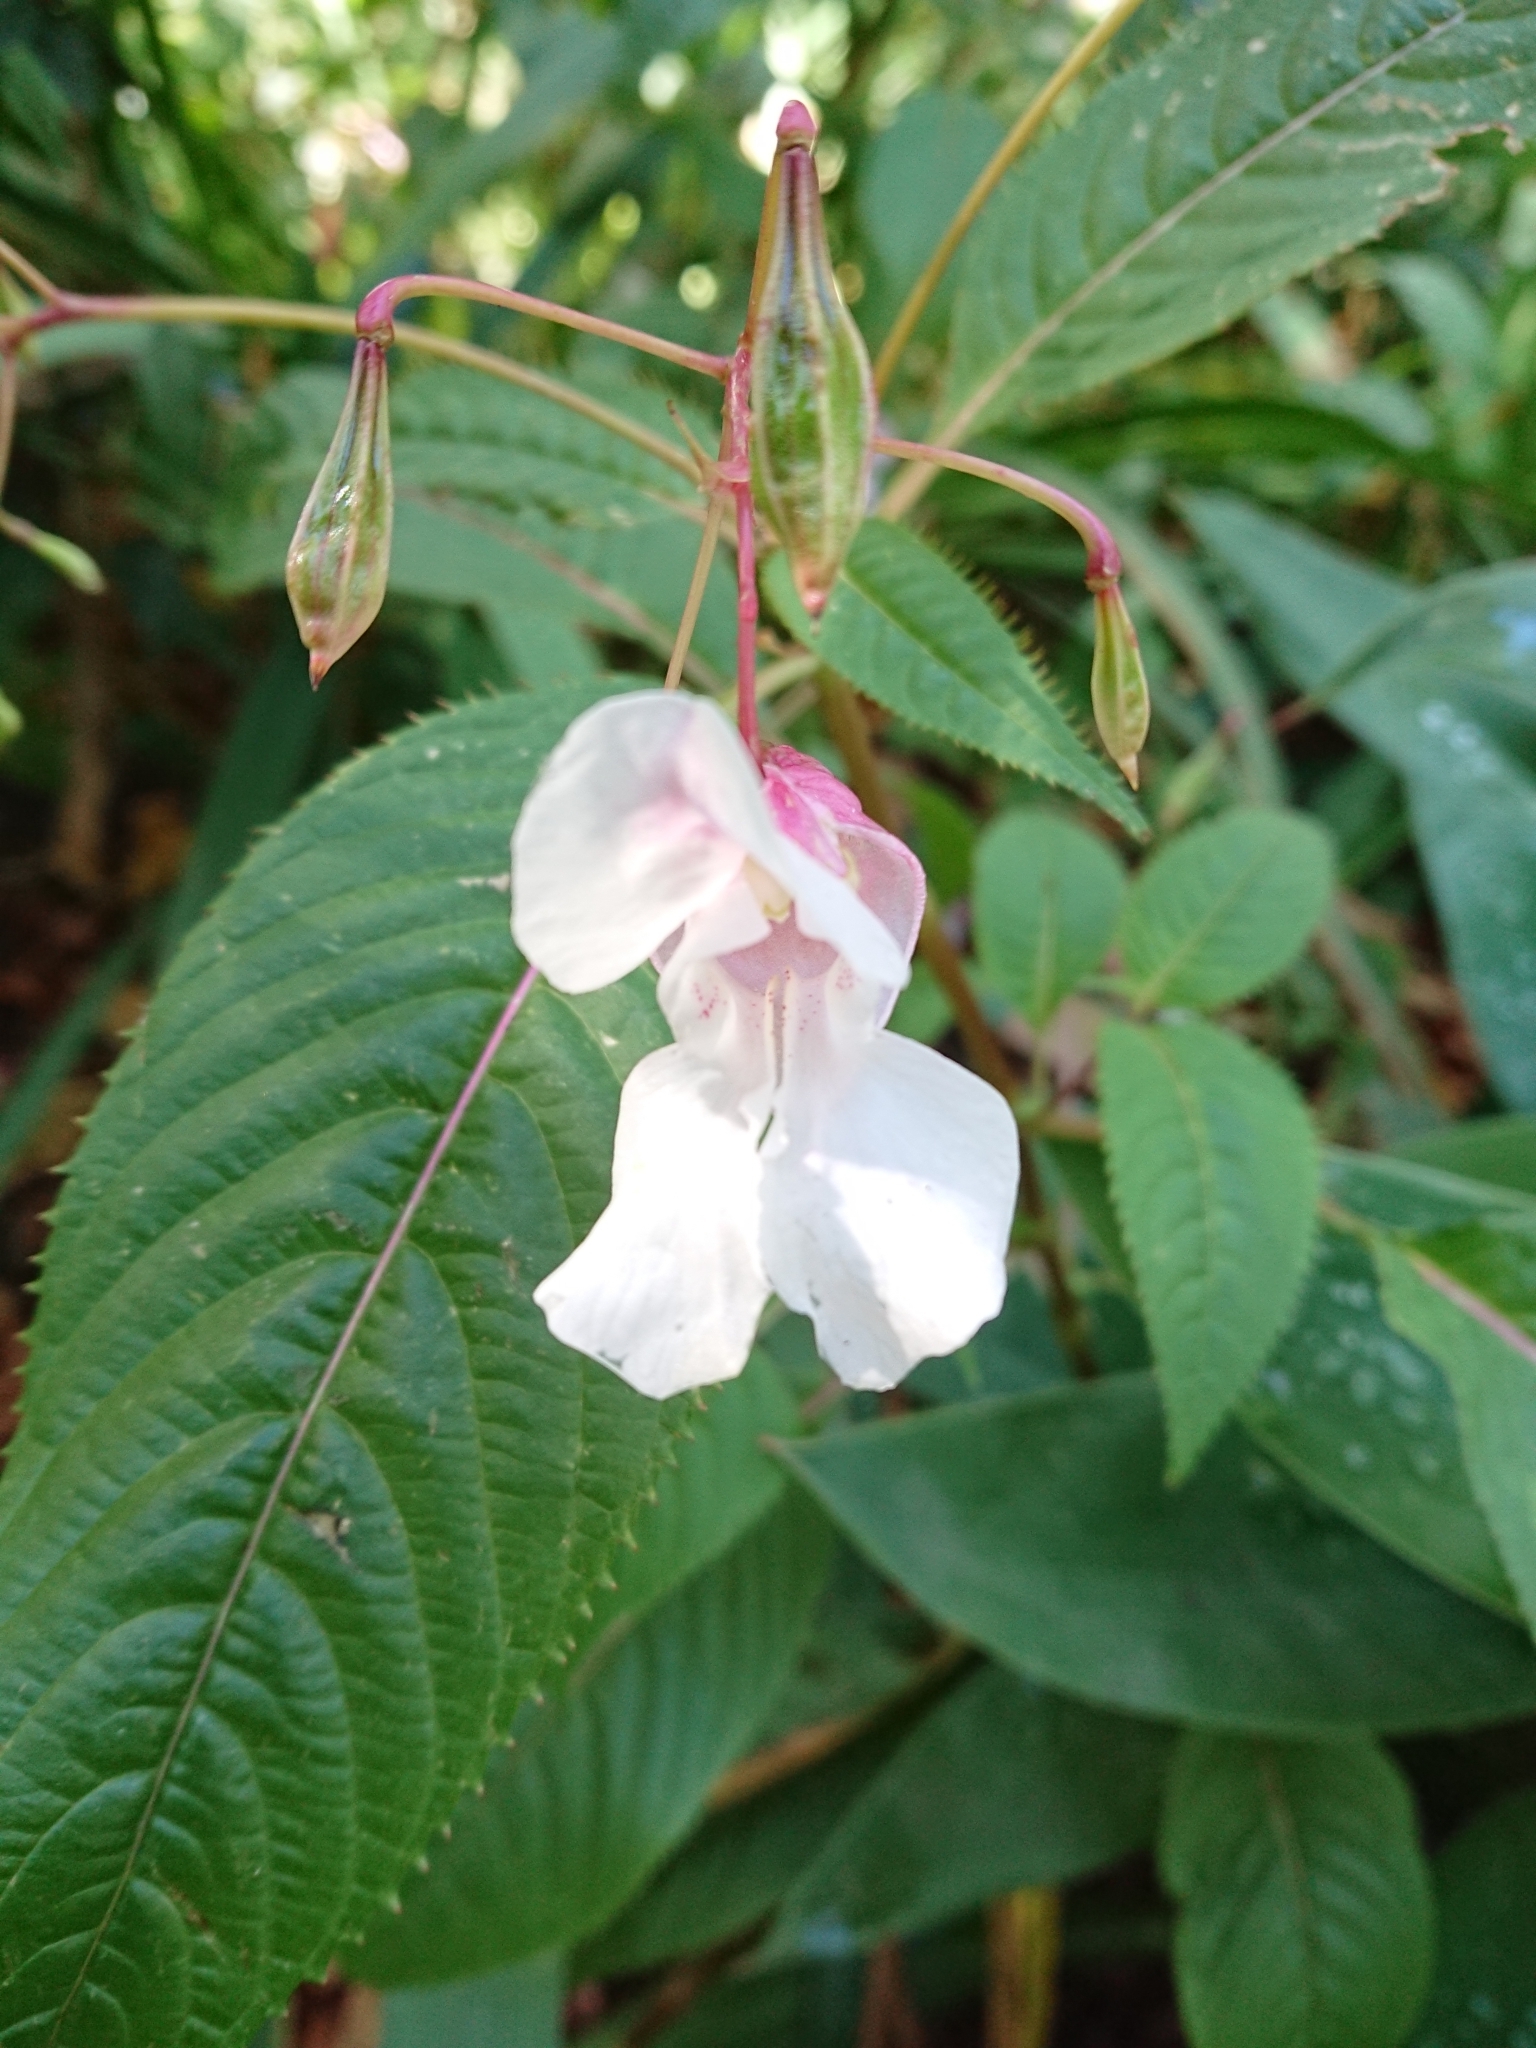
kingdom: Plantae
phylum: Tracheophyta
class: Magnoliopsida
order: Ericales
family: Balsaminaceae
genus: Impatiens
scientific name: Impatiens glandulifera
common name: Himalayan balsam
